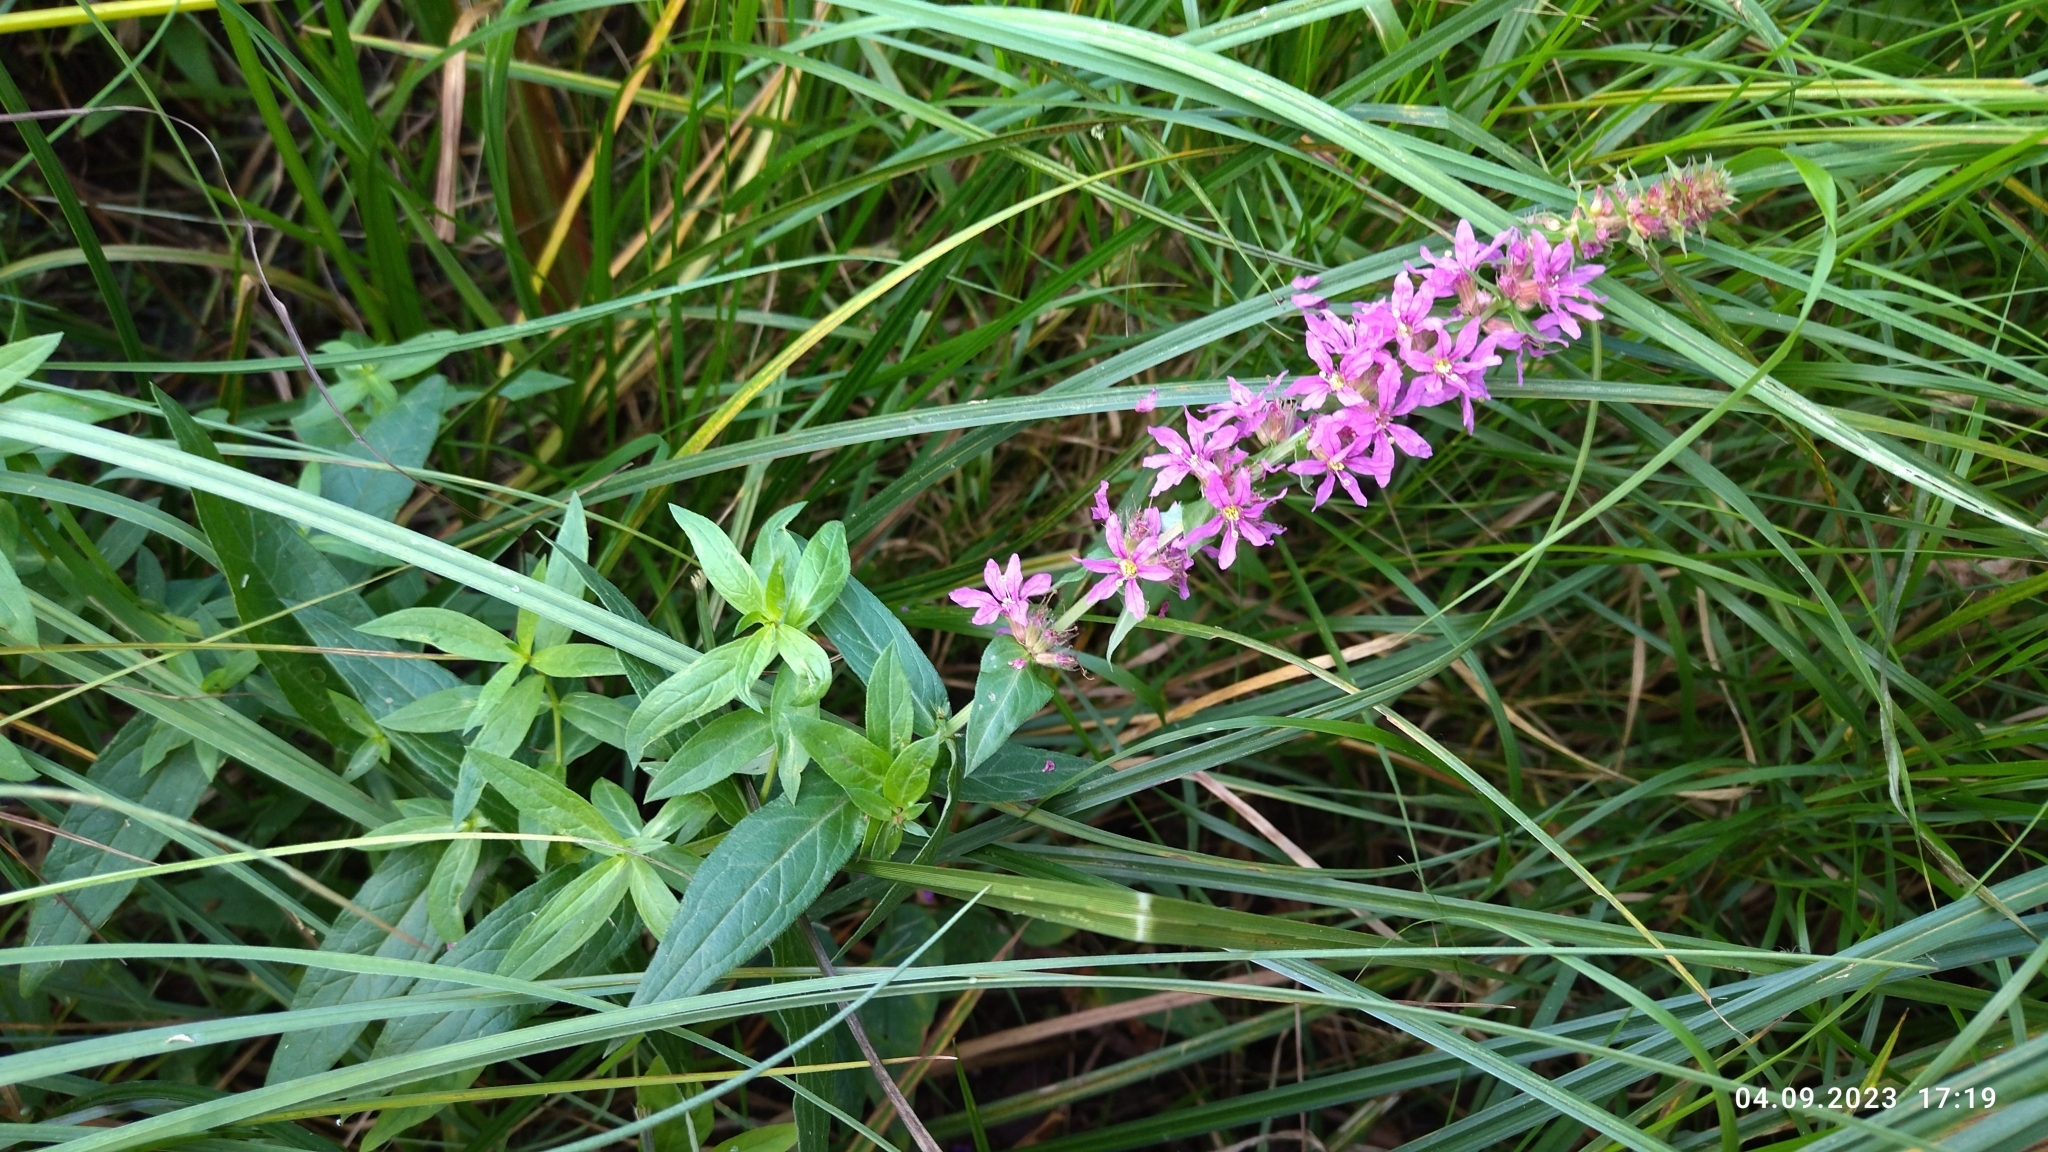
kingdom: Plantae
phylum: Tracheophyta
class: Magnoliopsida
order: Myrtales
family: Lythraceae
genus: Lythrum
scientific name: Lythrum salicaria
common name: Purple loosestrife
